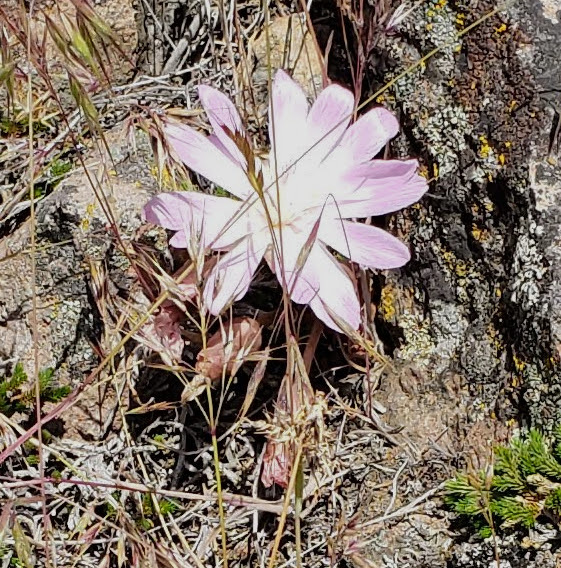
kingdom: Plantae
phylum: Tracheophyta
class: Magnoliopsida
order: Caryophyllales
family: Montiaceae
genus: Lewisia
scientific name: Lewisia rediviva
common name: Bitter-root
